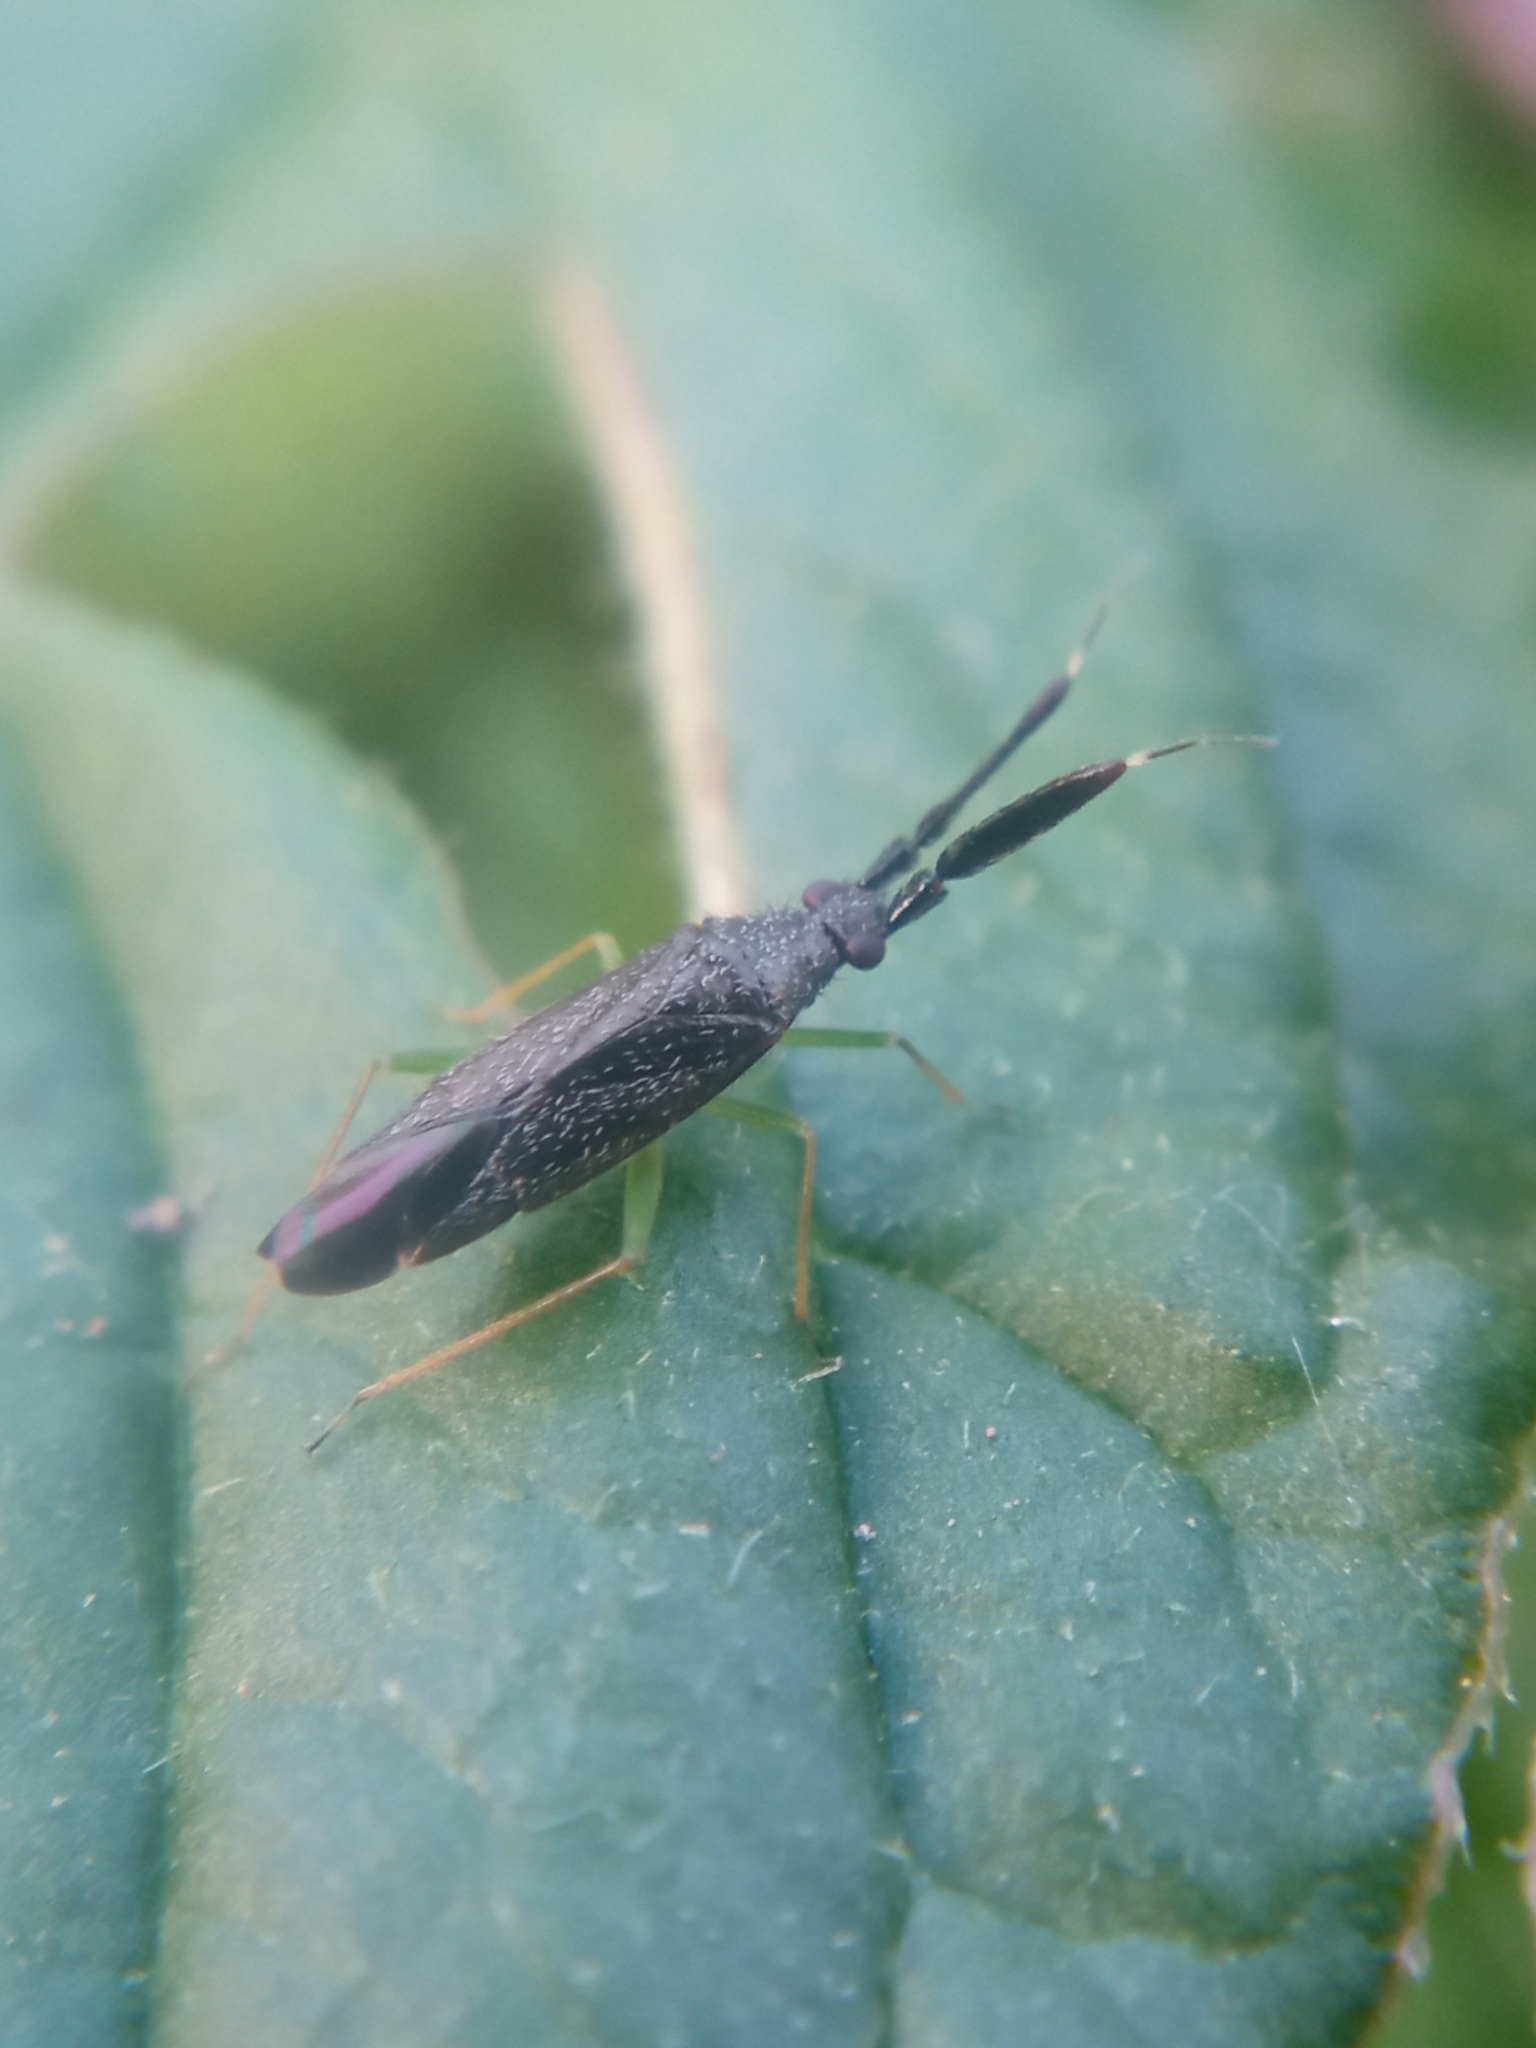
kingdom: Animalia
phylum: Arthropoda
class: Insecta
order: Hemiptera
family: Miridae
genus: Heterotoma
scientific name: Heterotoma planicornis
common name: Plant bug
